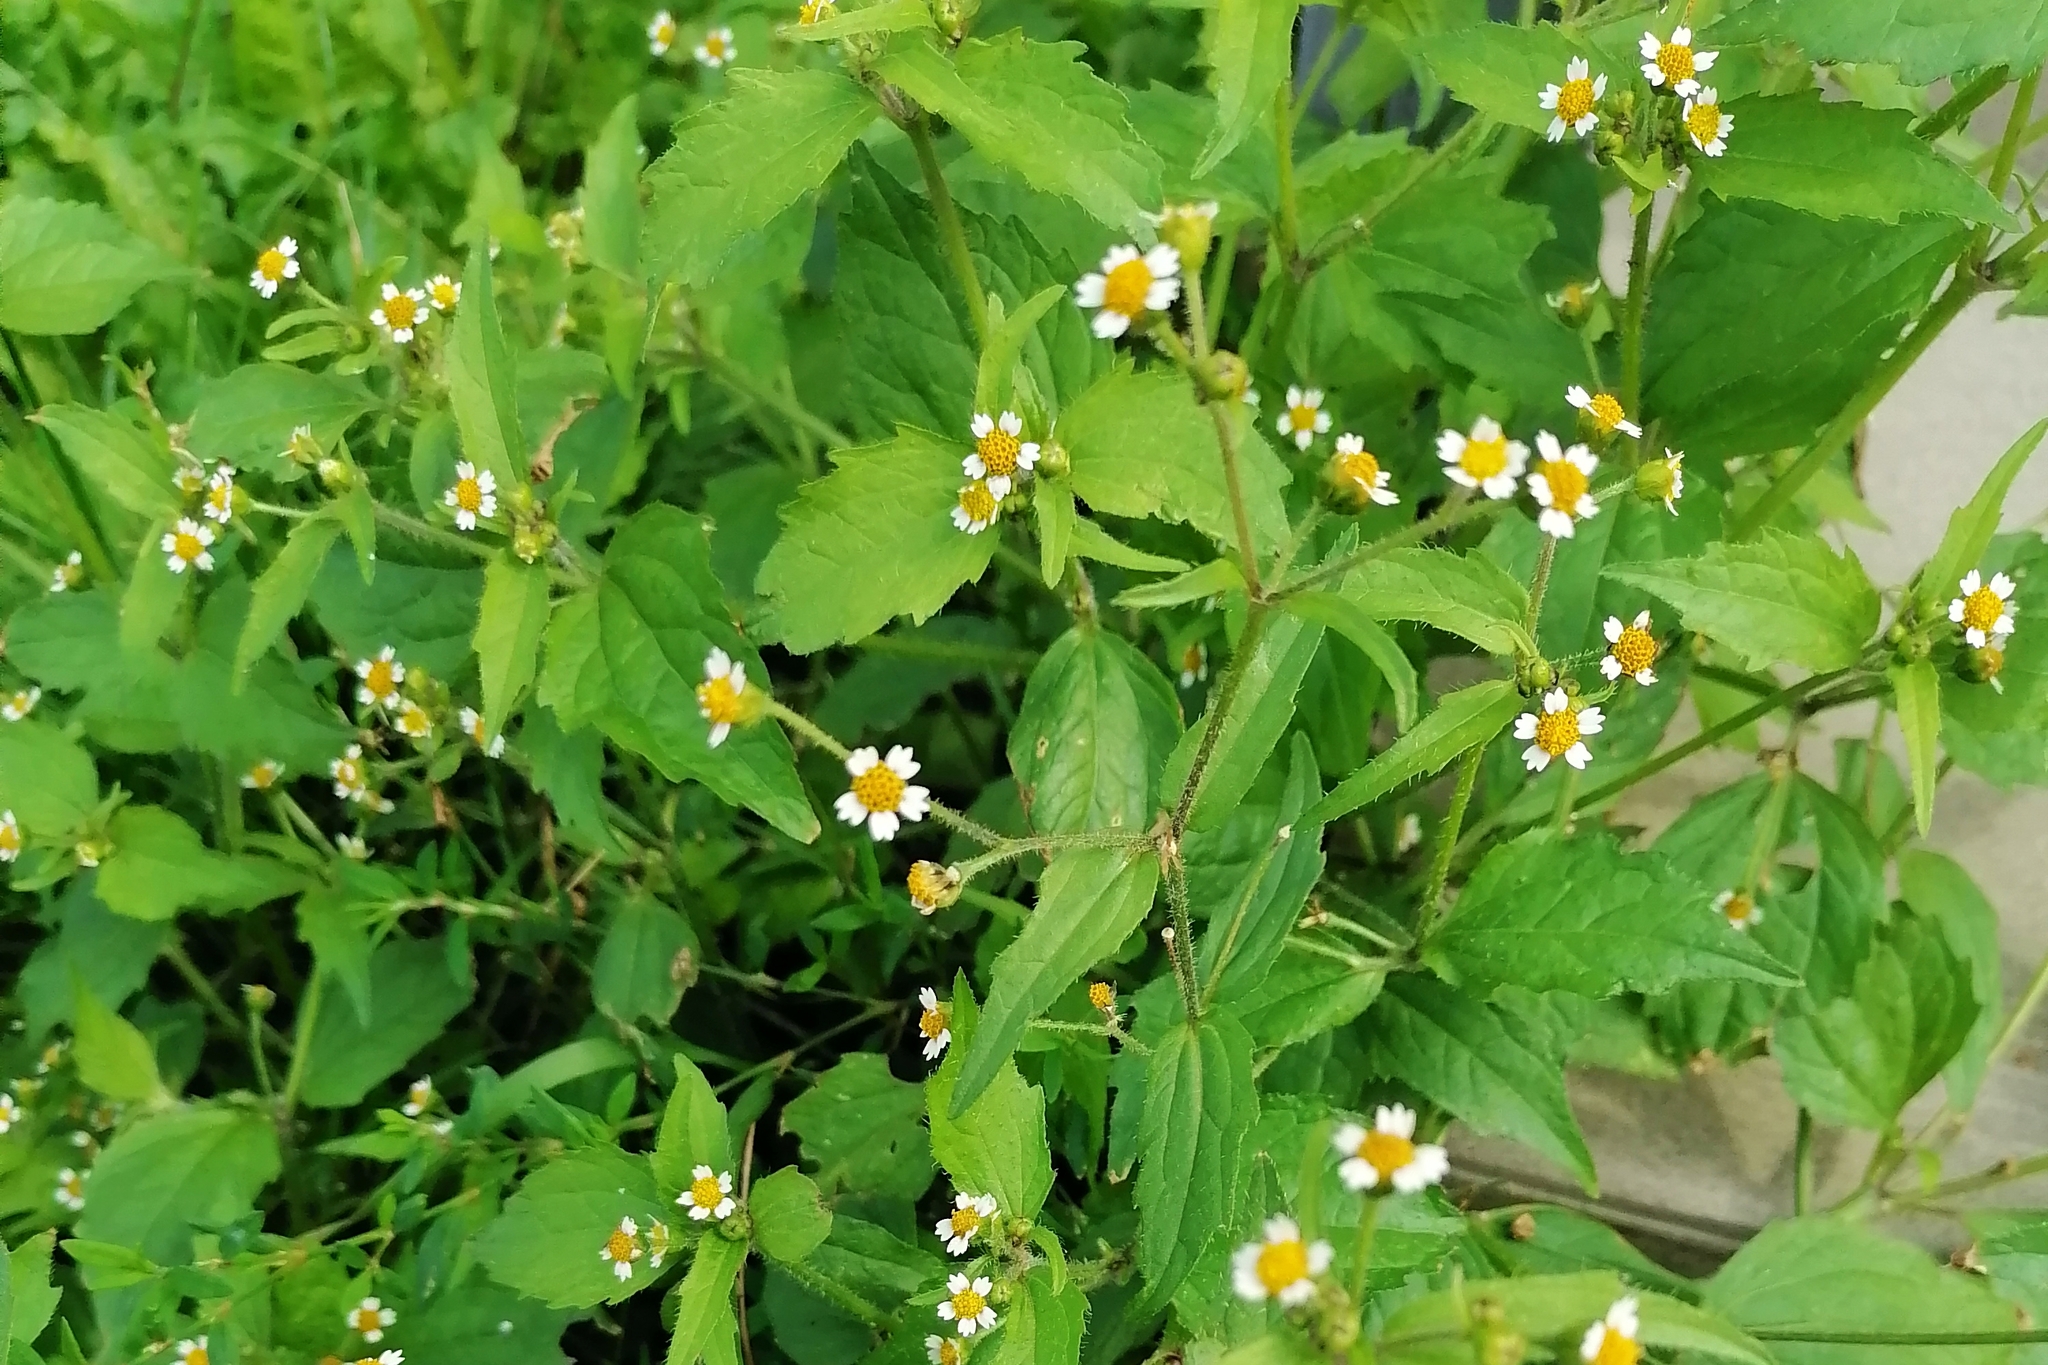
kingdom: Plantae
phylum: Tracheophyta
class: Magnoliopsida
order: Asterales
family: Asteraceae
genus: Galinsoga
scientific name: Galinsoga quadriradiata
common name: Shaggy soldier
